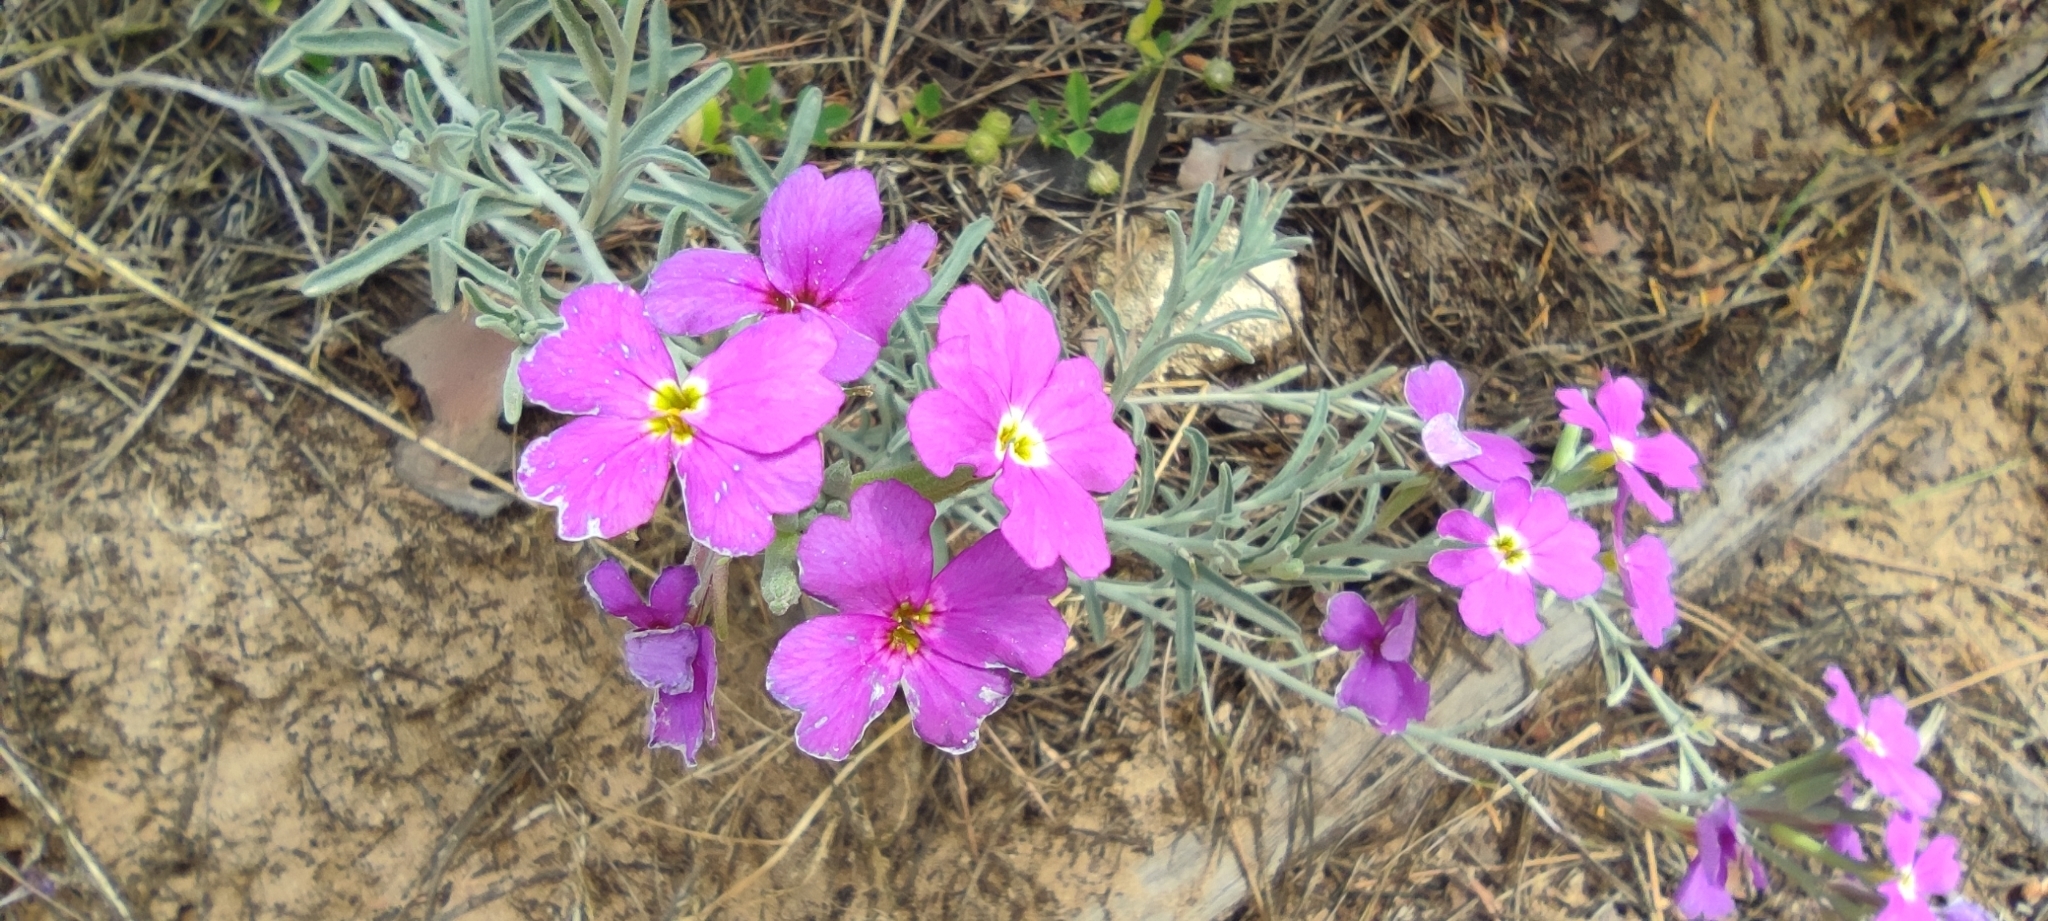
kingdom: Plantae
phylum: Tracheophyta
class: Magnoliopsida
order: Brassicales
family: Brassicaceae
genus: Marcuskochia
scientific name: Marcuskochia littorea
